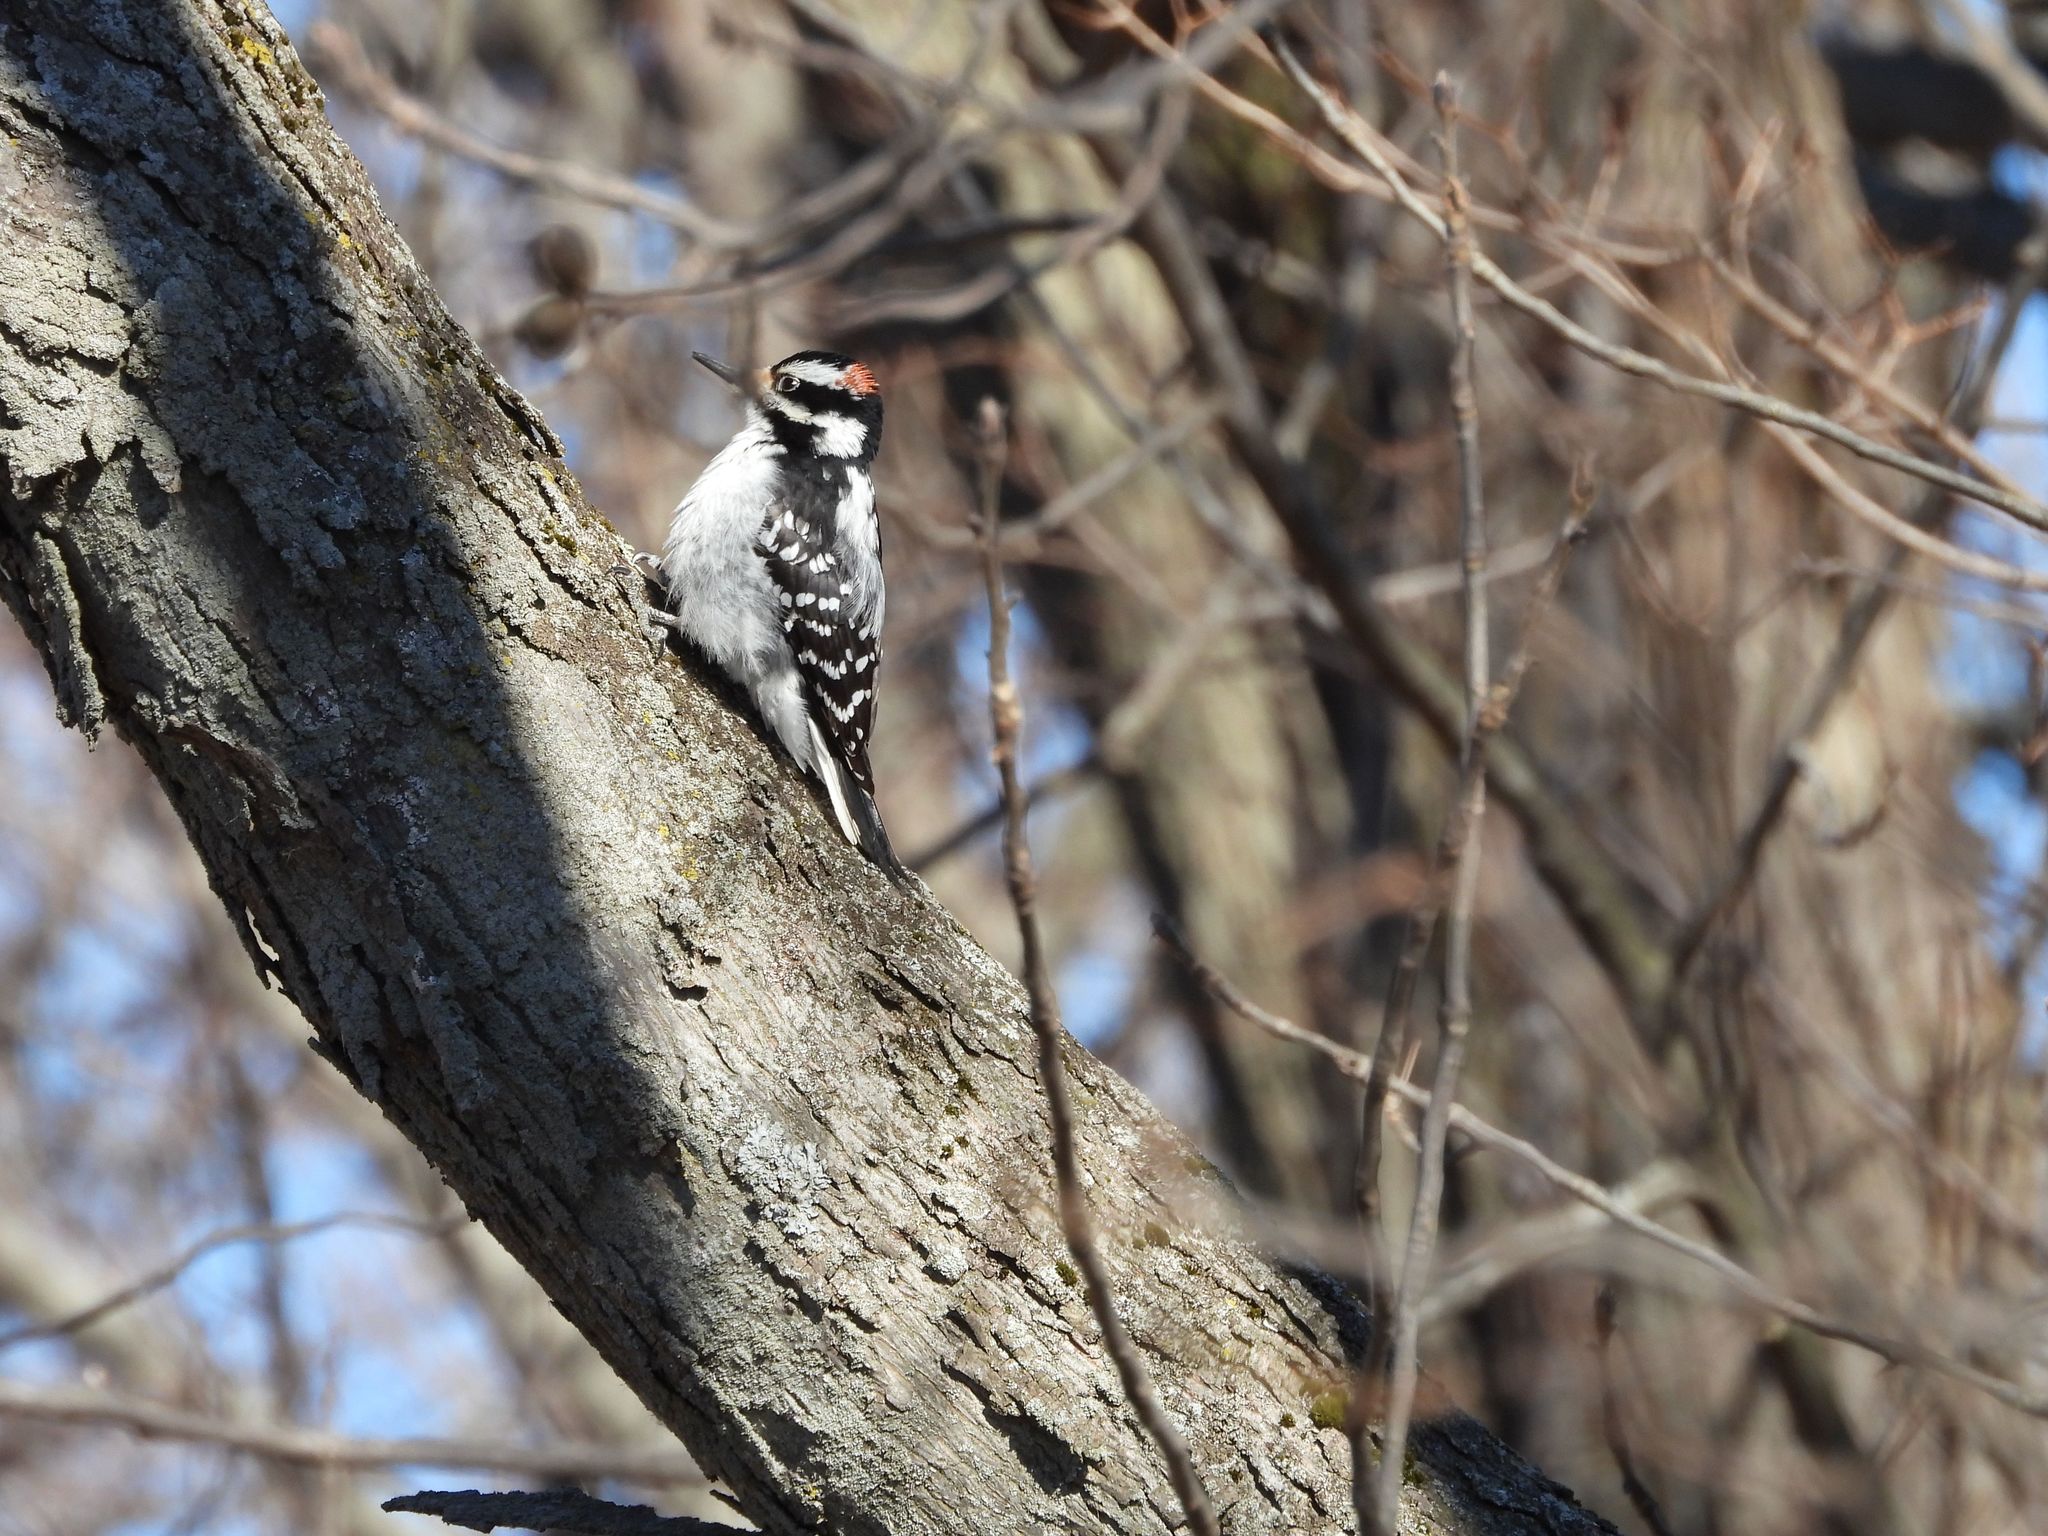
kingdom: Animalia
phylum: Chordata
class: Aves
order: Piciformes
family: Picidae
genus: Leuconotopicus
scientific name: Leuconotopicus villosus
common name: Hairy woodpecker
